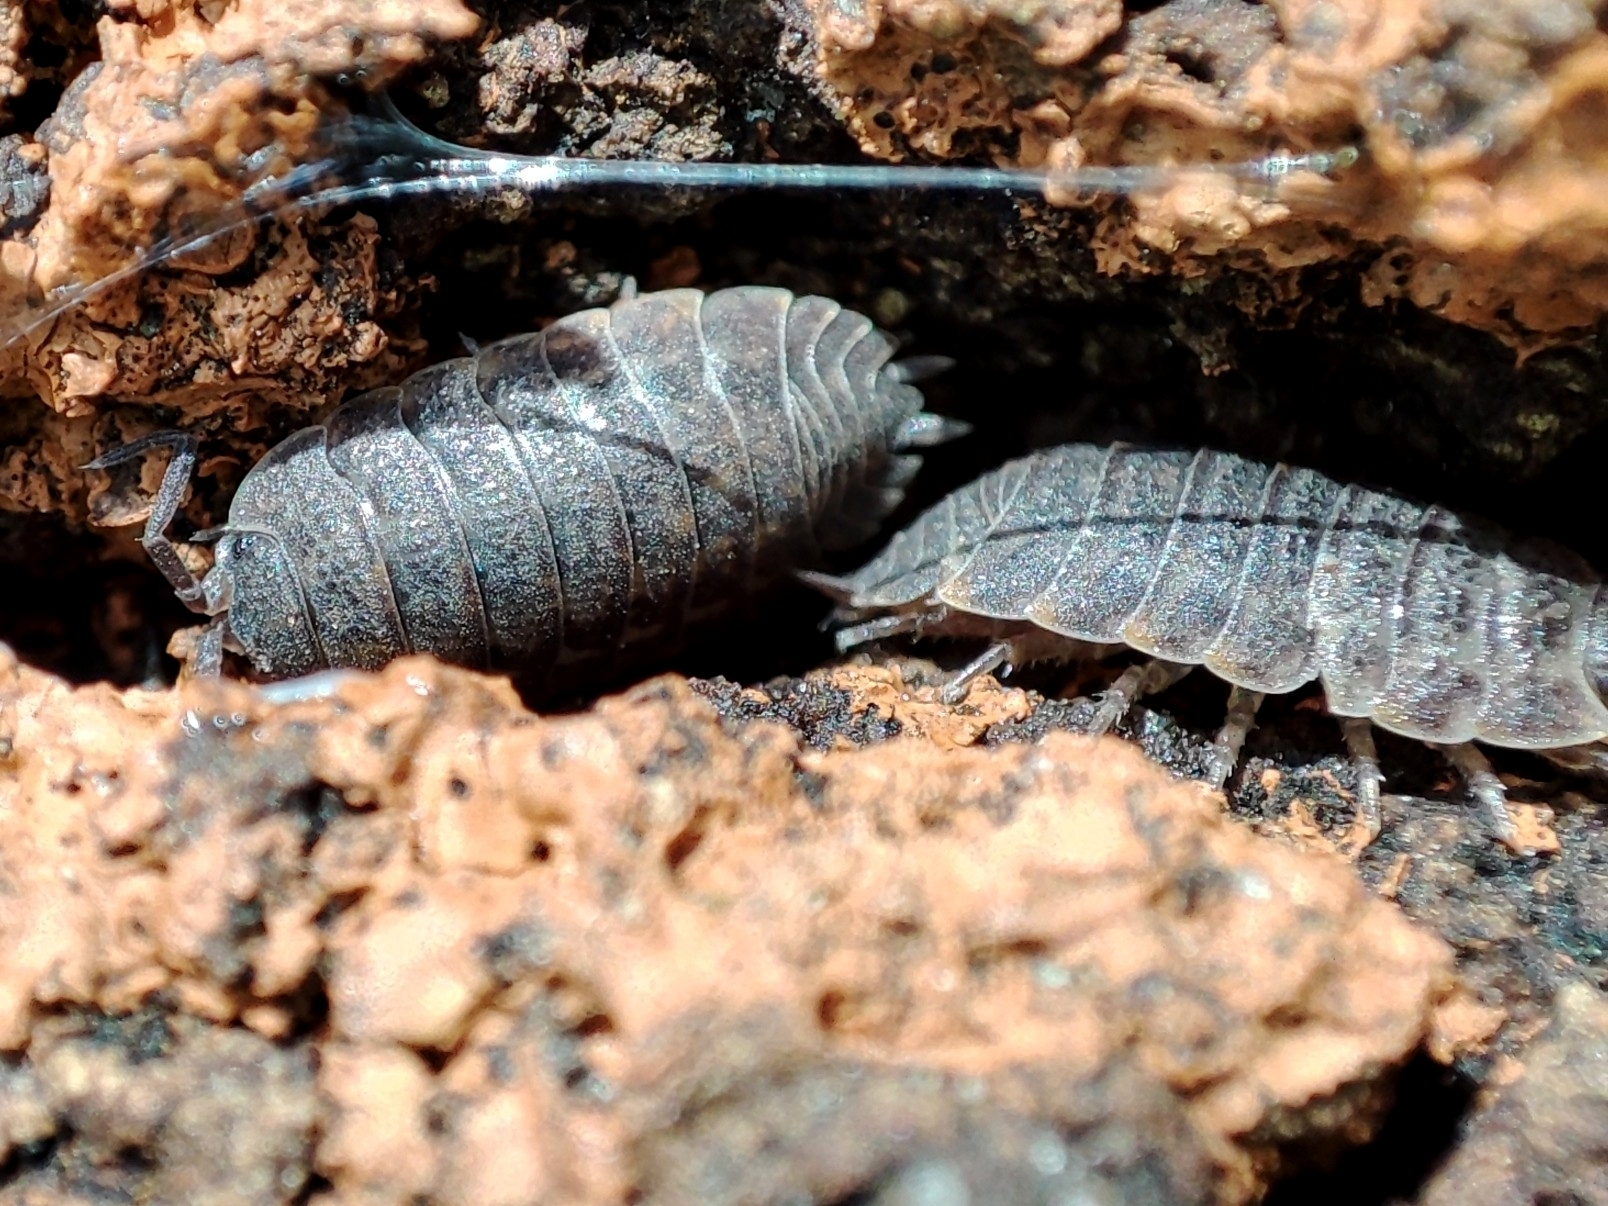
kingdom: Animalia
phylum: Arthropoda
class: Malacostraca
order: Isopoda
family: Trachelipodidae
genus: Trachelipus
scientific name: Trachelipus rathkii
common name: Isopod
